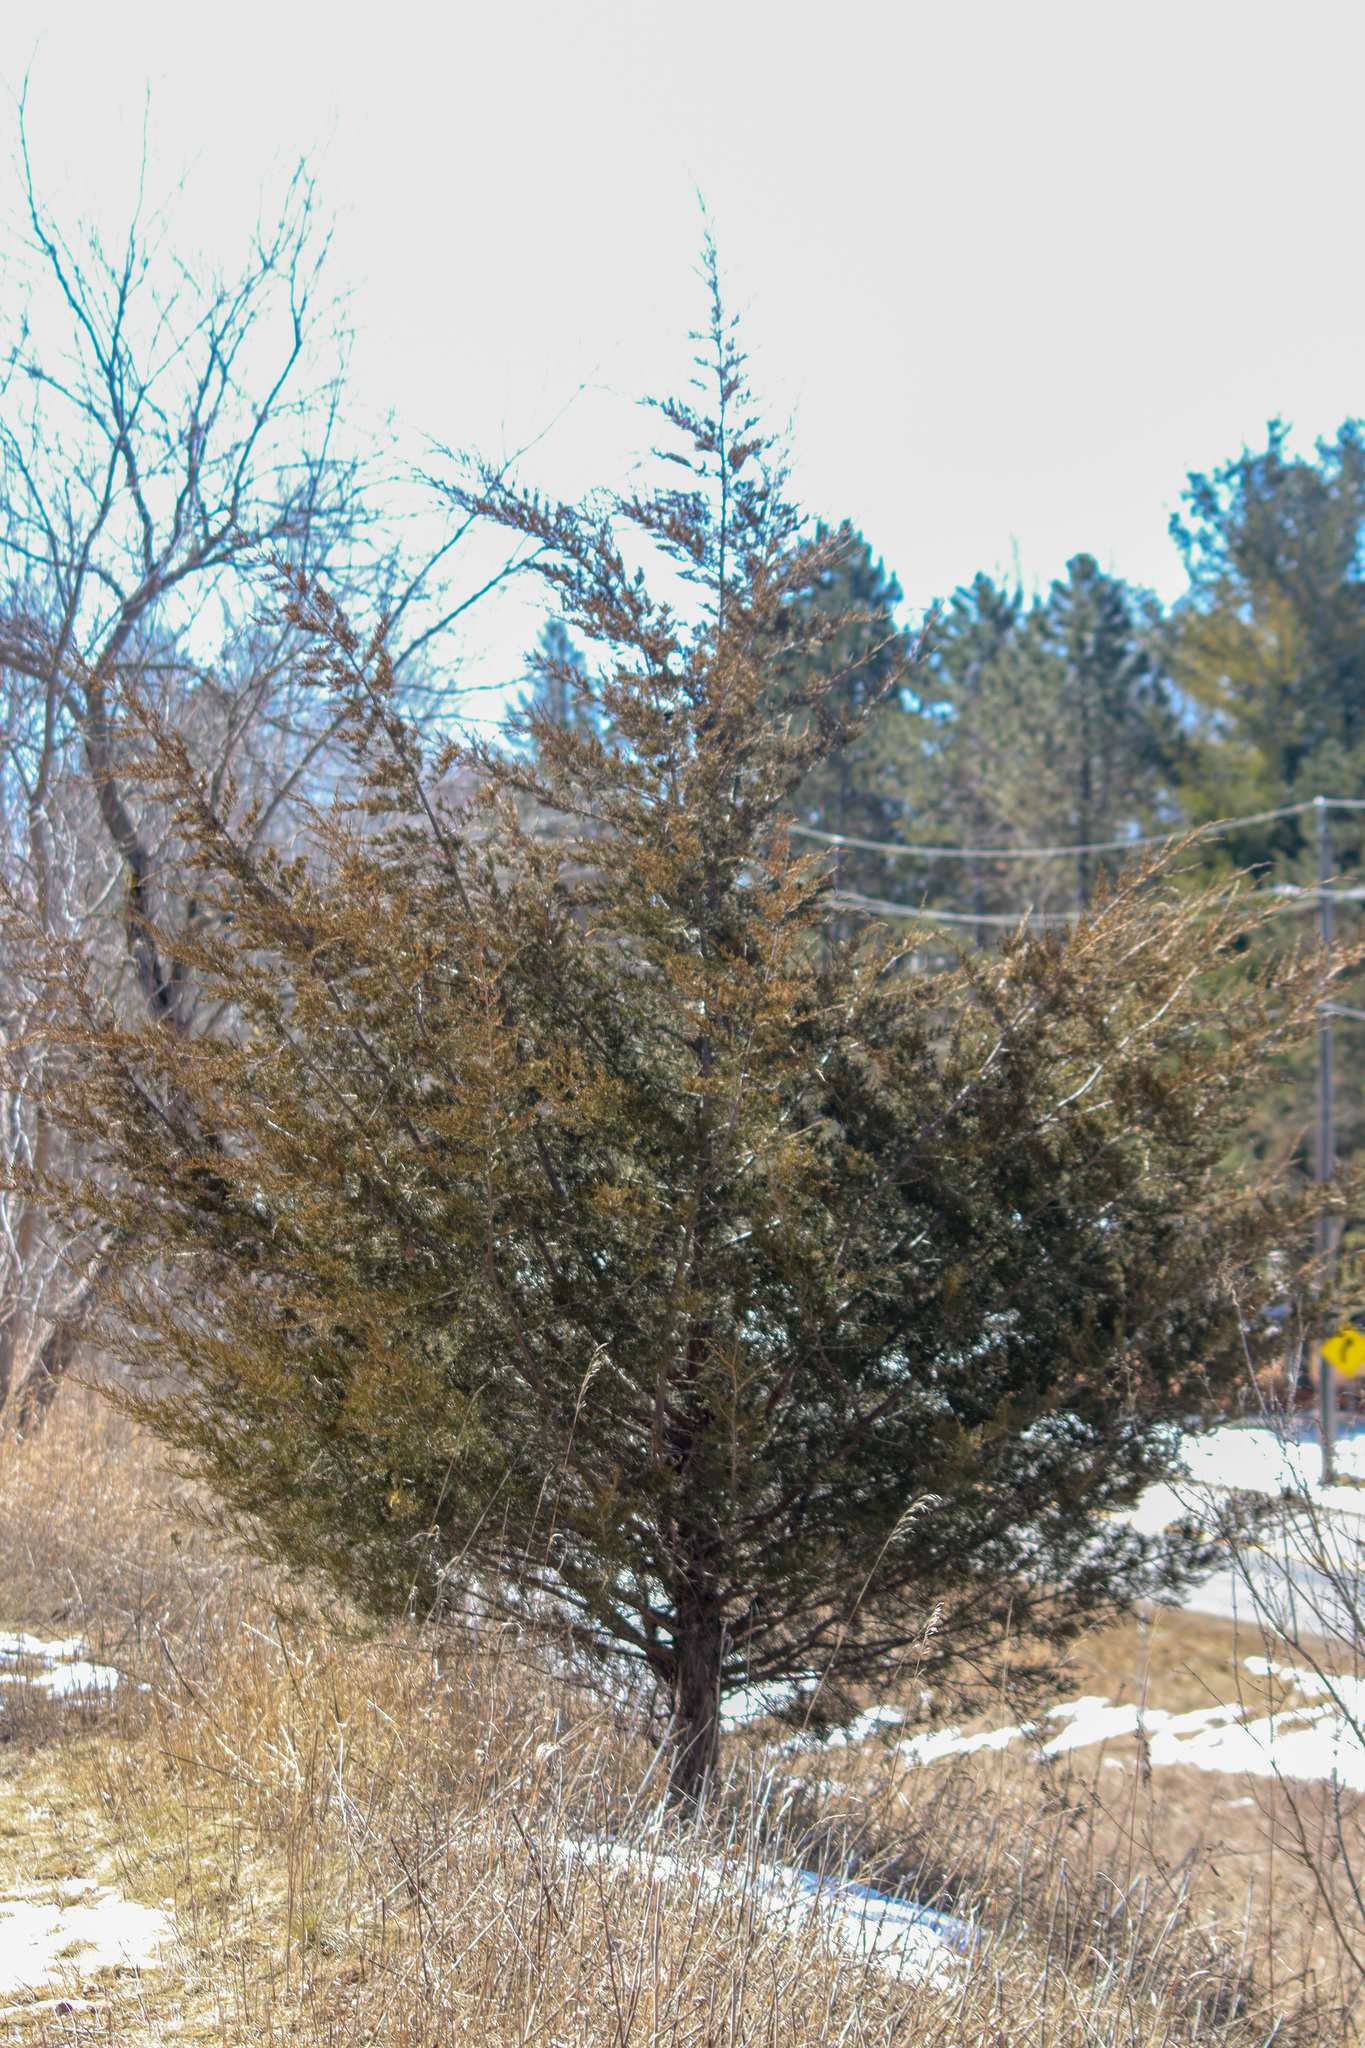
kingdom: Plantae
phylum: Tracheophyta
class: Pinopsida
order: Pinales
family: Cupressaceae
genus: Juniperus
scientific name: Juniperus virginiana
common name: Red juniper
